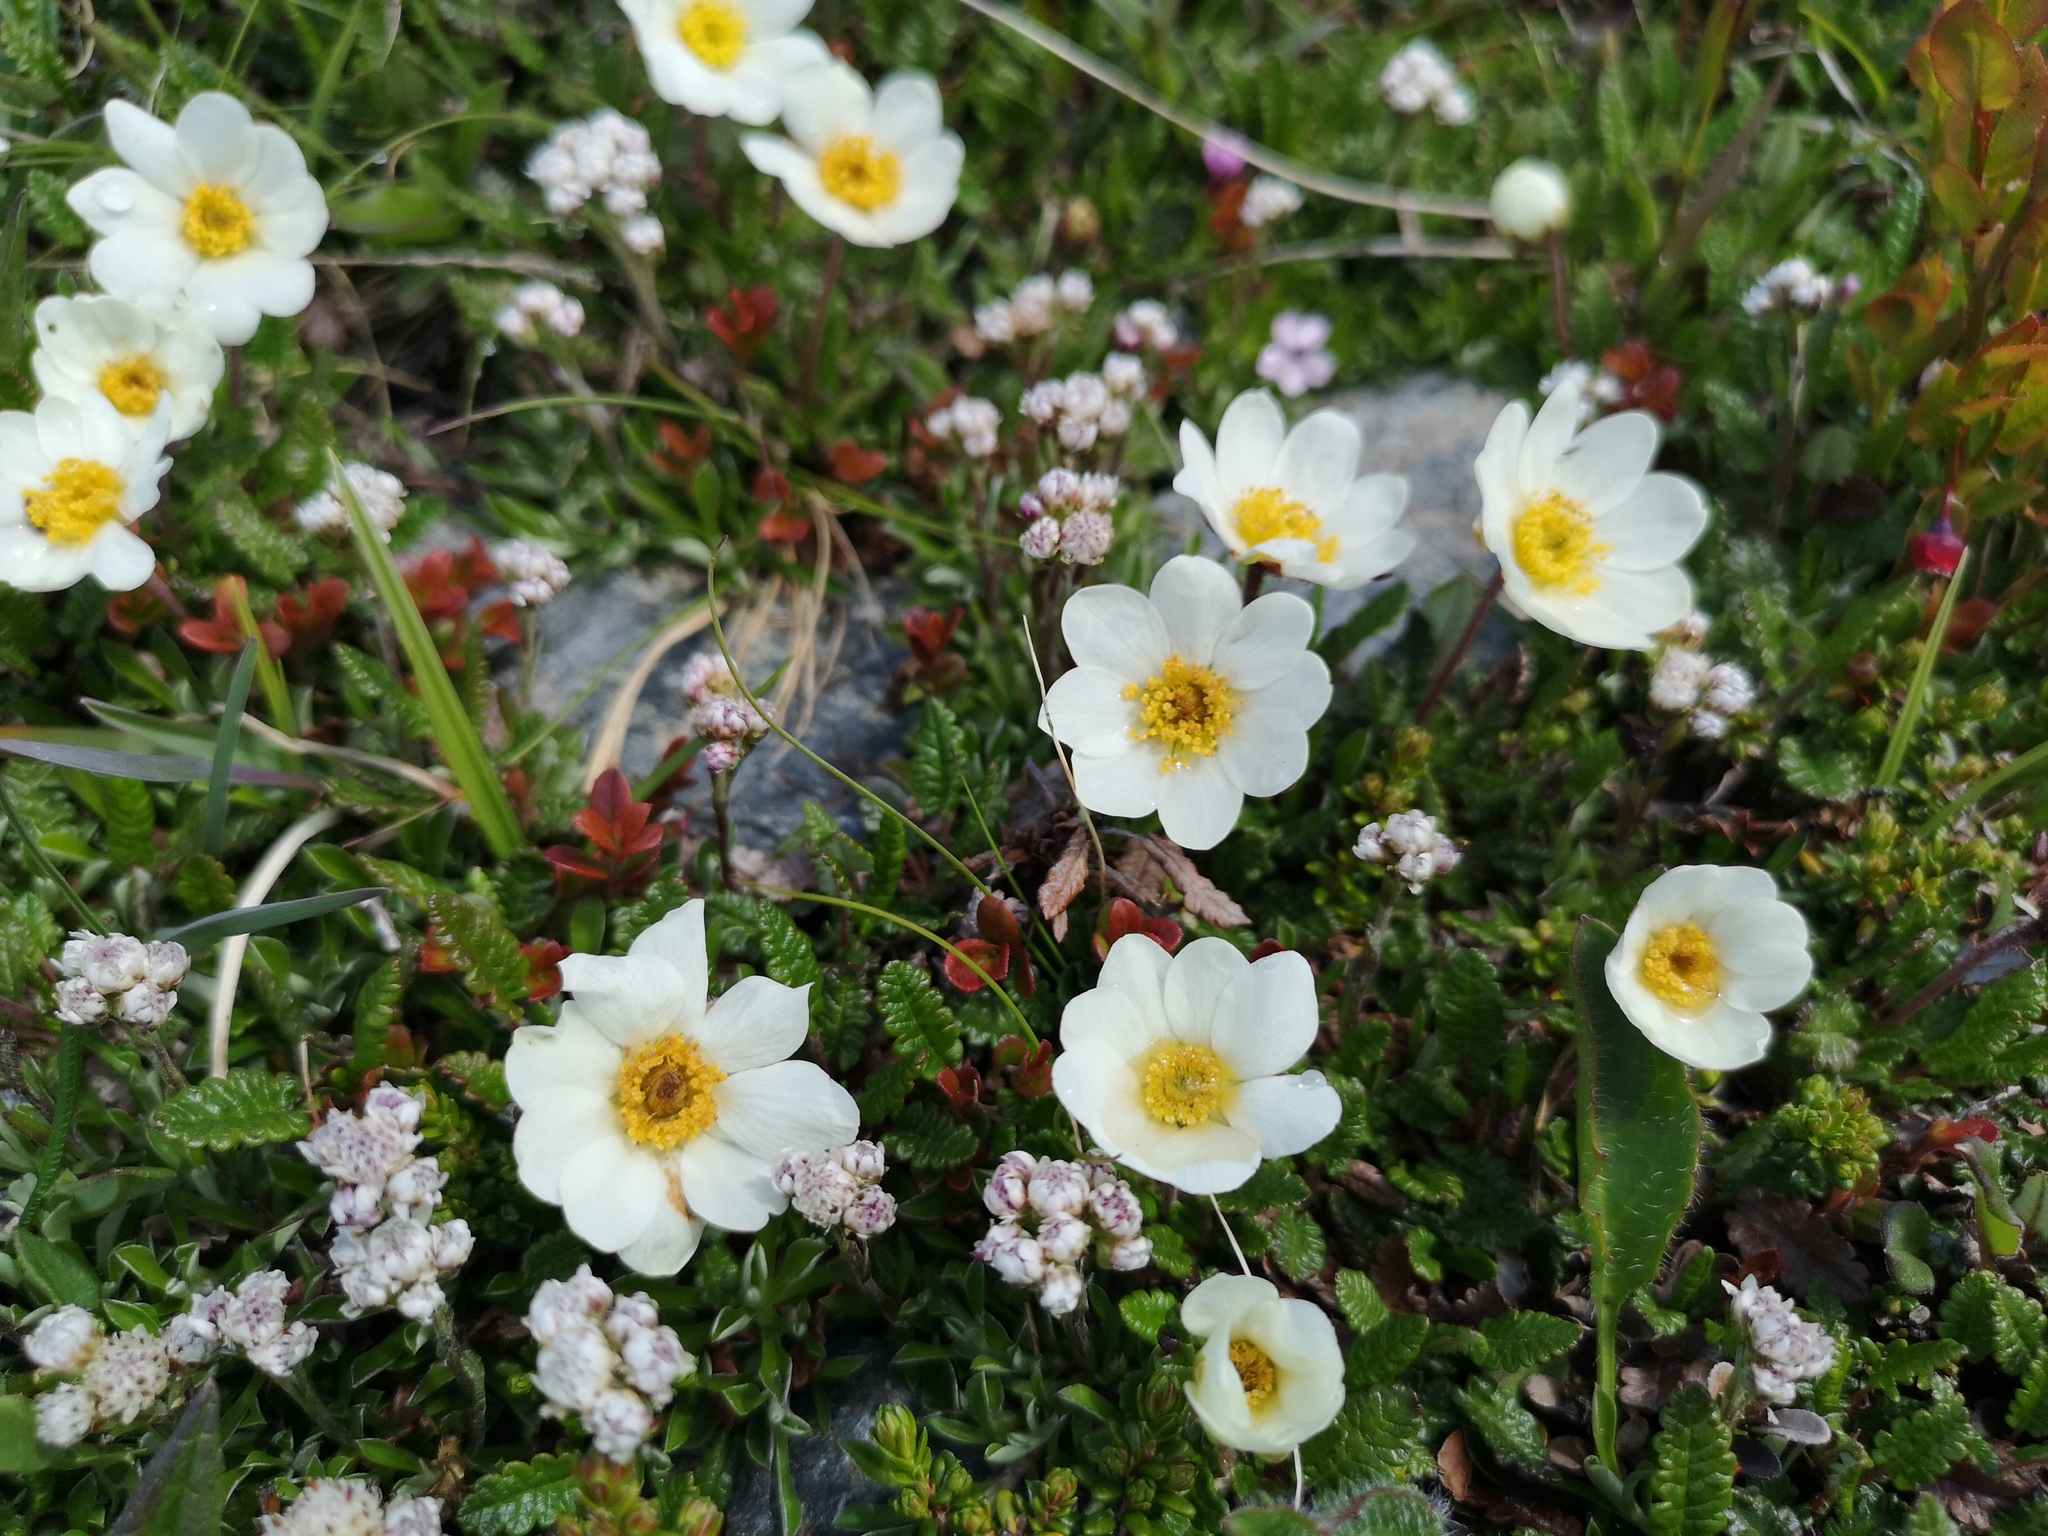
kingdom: Plantae
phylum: Tracheophyta
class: Magnoliopsida
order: Rosales
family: Rosaceae
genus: Dryas
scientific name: Dryas octopetala
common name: Eight-petal mountain-avens
